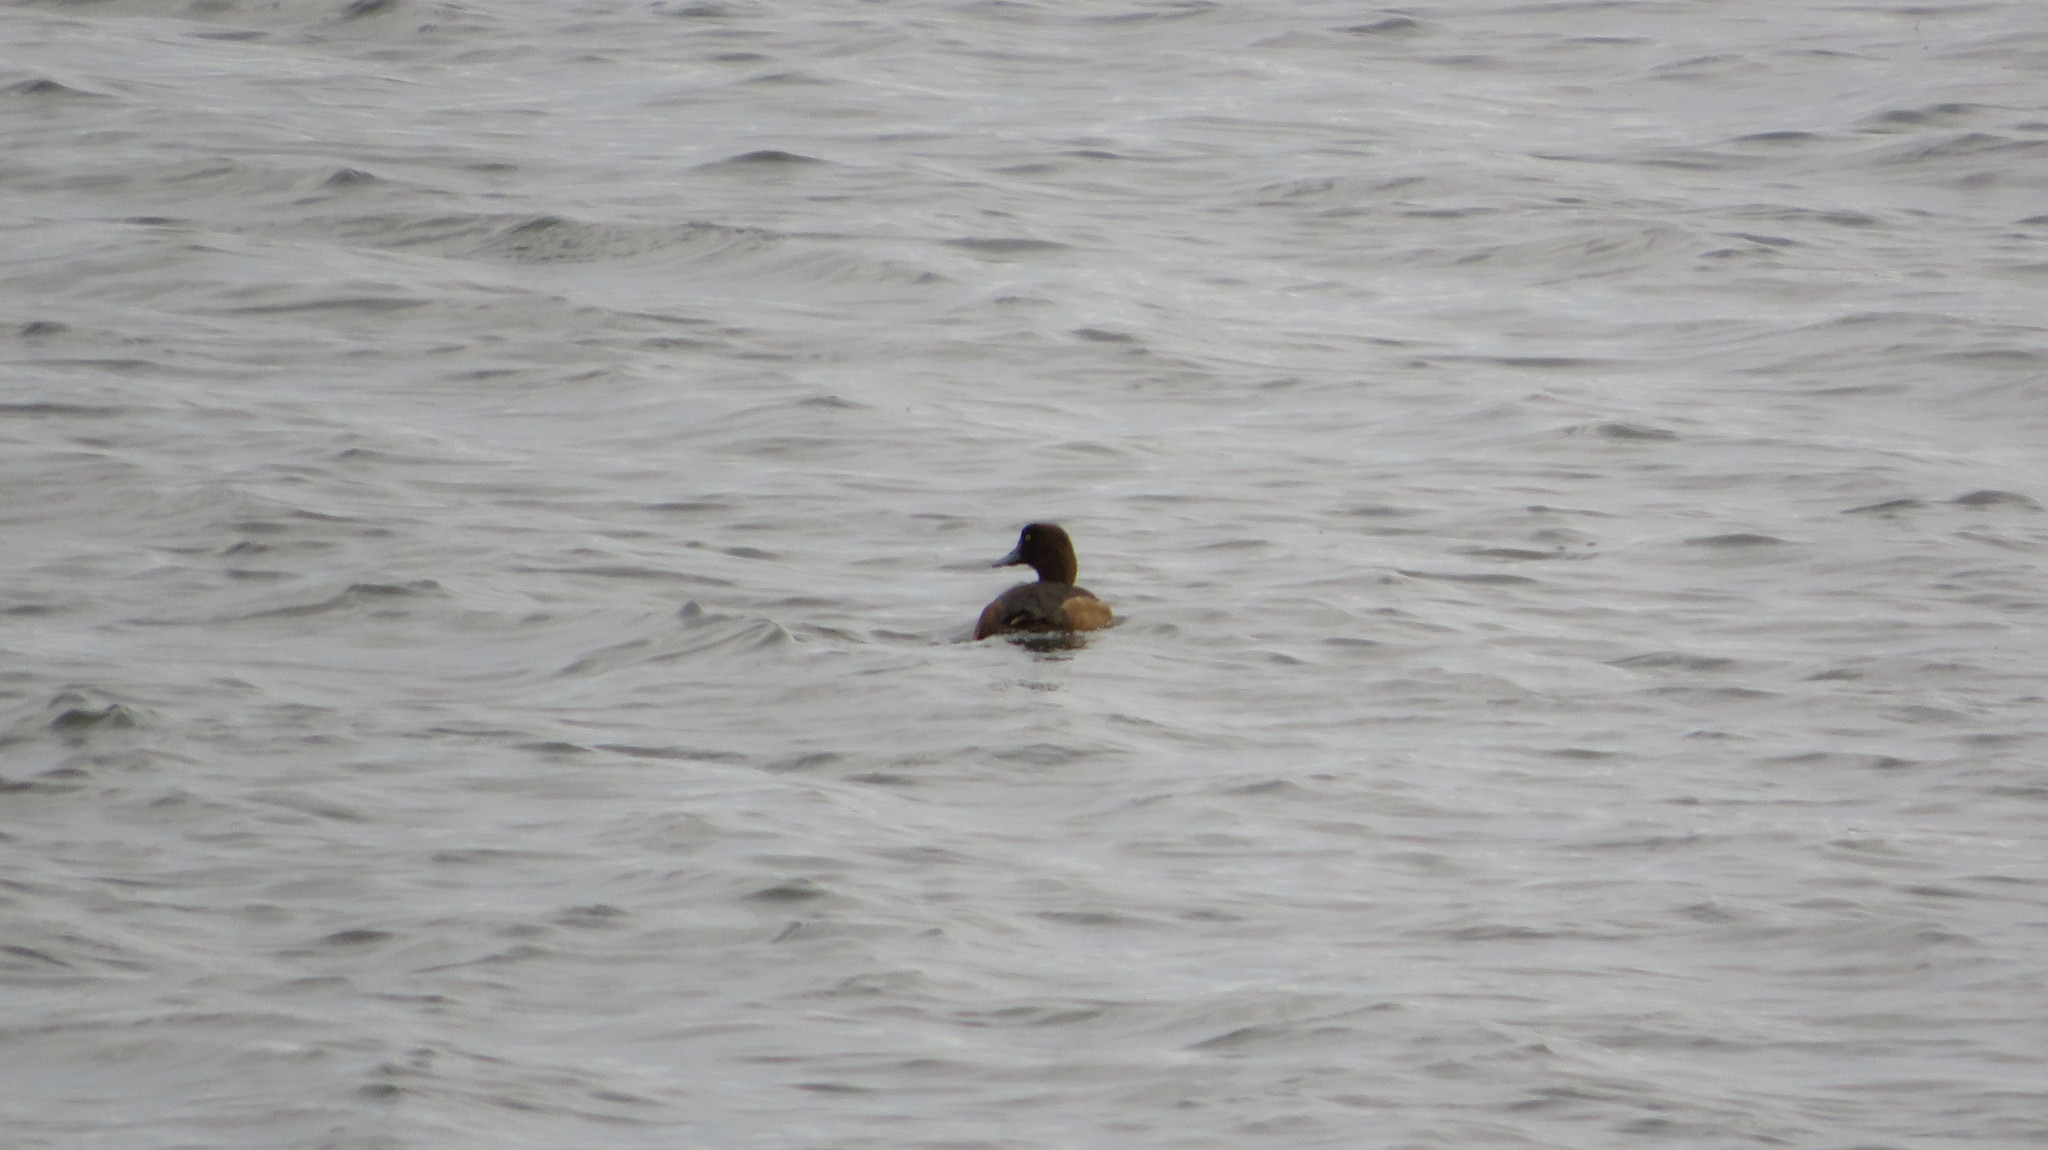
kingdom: Animalia
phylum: Chordata
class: Aves
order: Anseriformes
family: Anatidae
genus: Aythya
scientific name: Aythya fuligula
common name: Tufted duck
